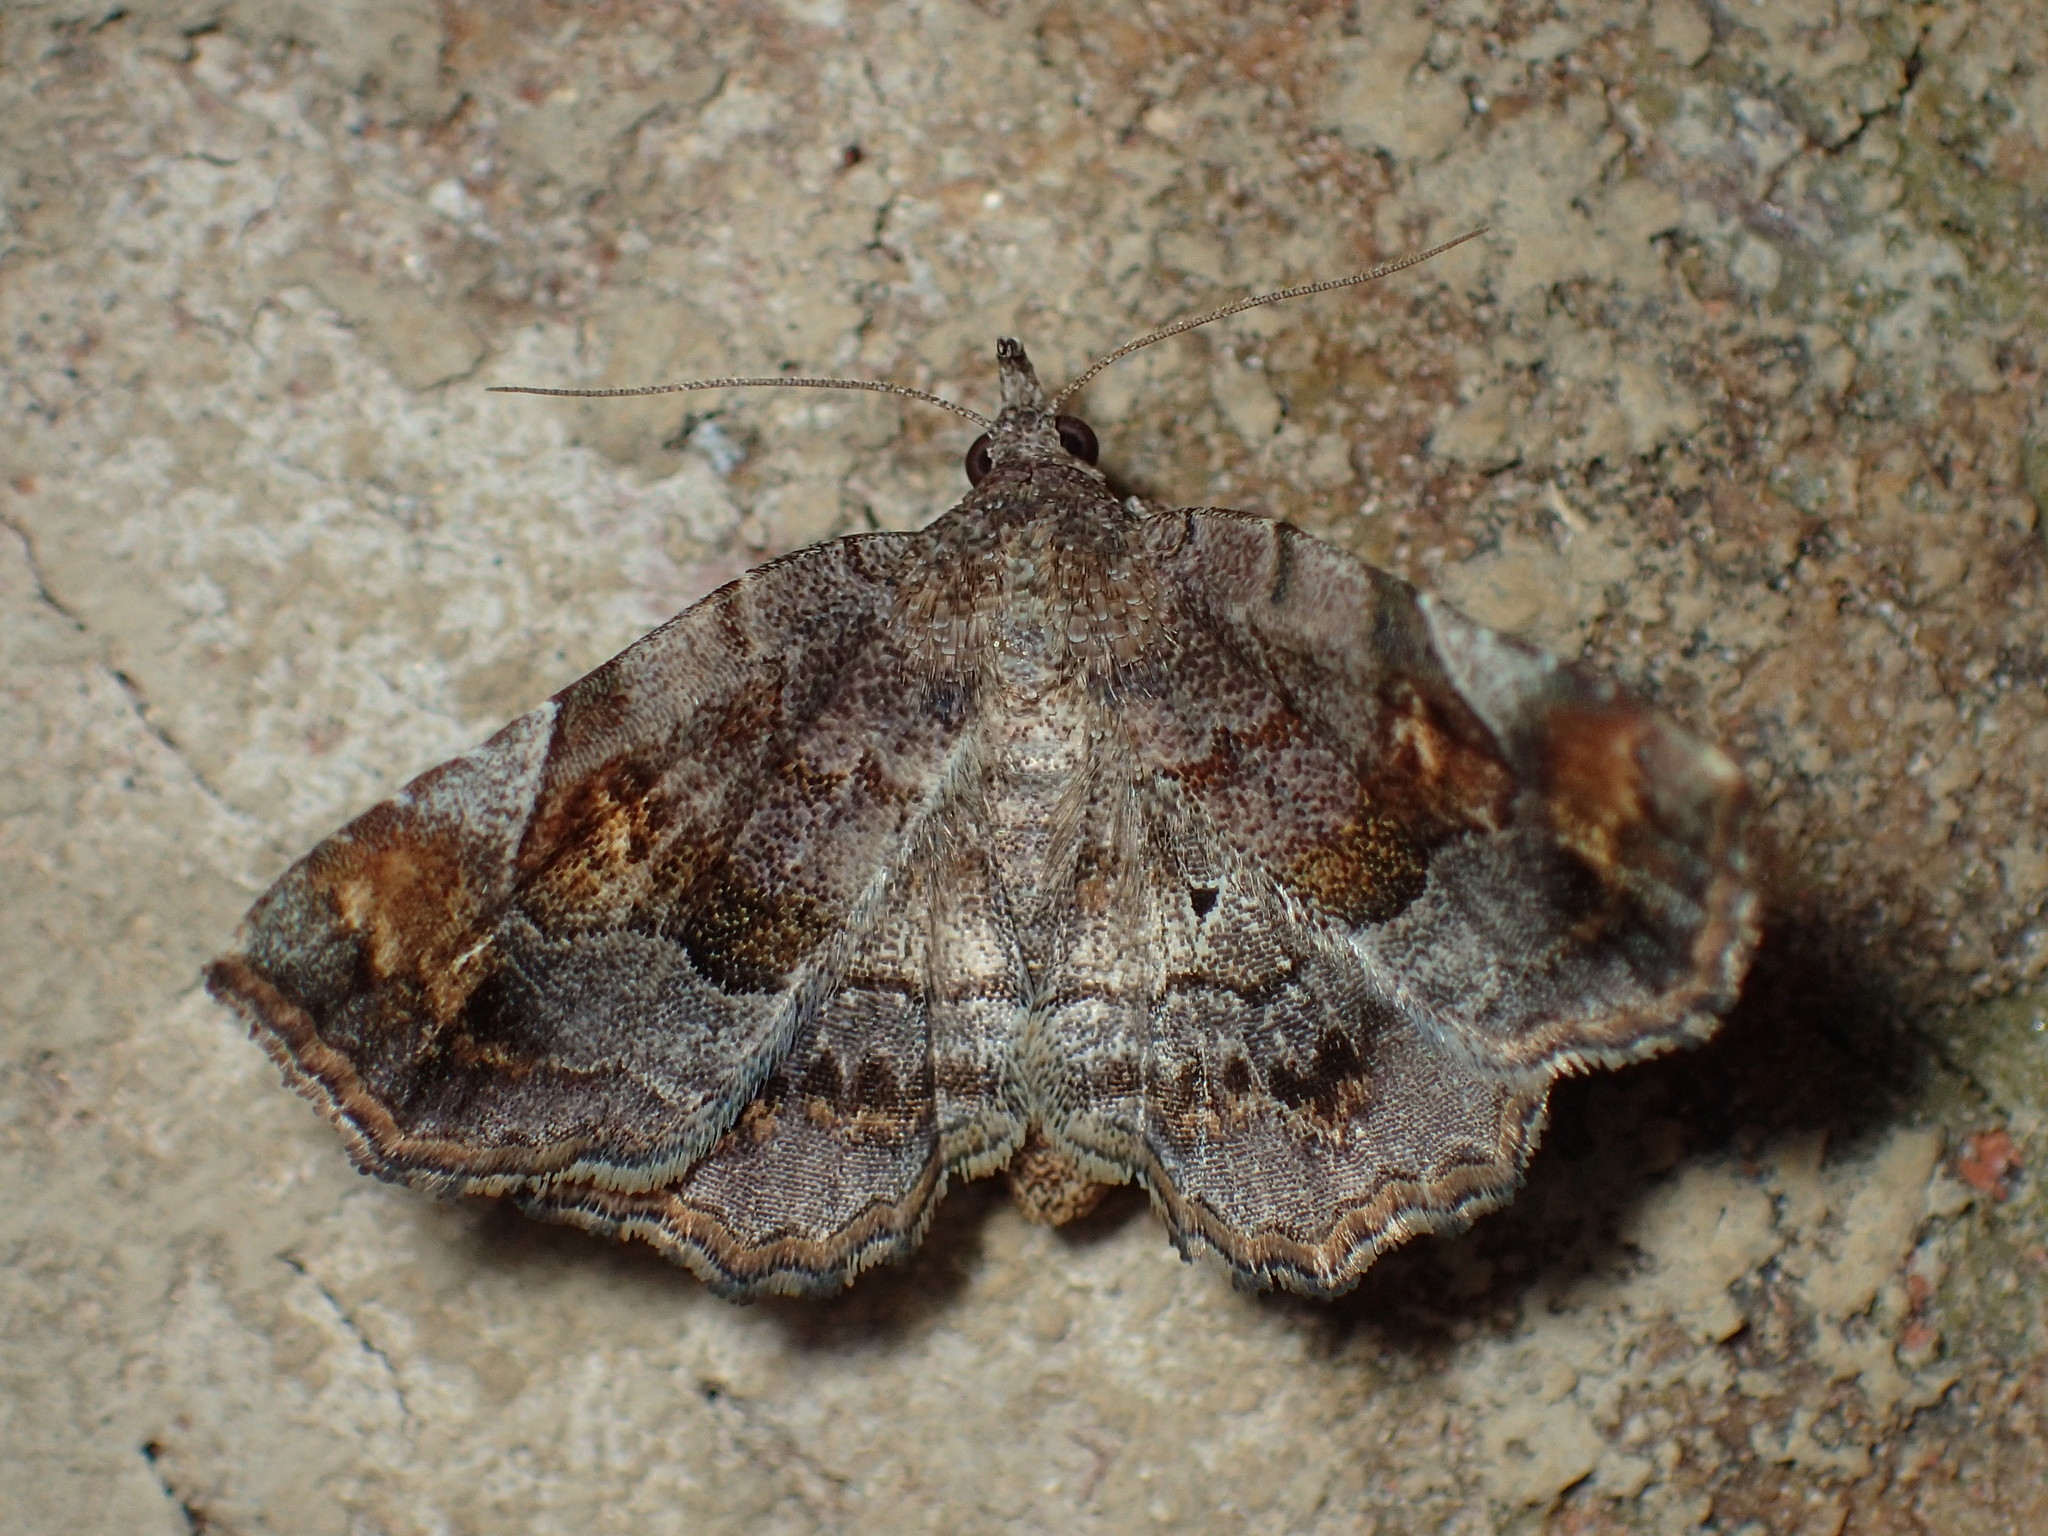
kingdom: Animalia
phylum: Arthropoda
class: Insecta
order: Lepidoptera
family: Erebidae
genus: Pangrapta
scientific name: Pangrapta decoralis
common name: Decorated owlet
